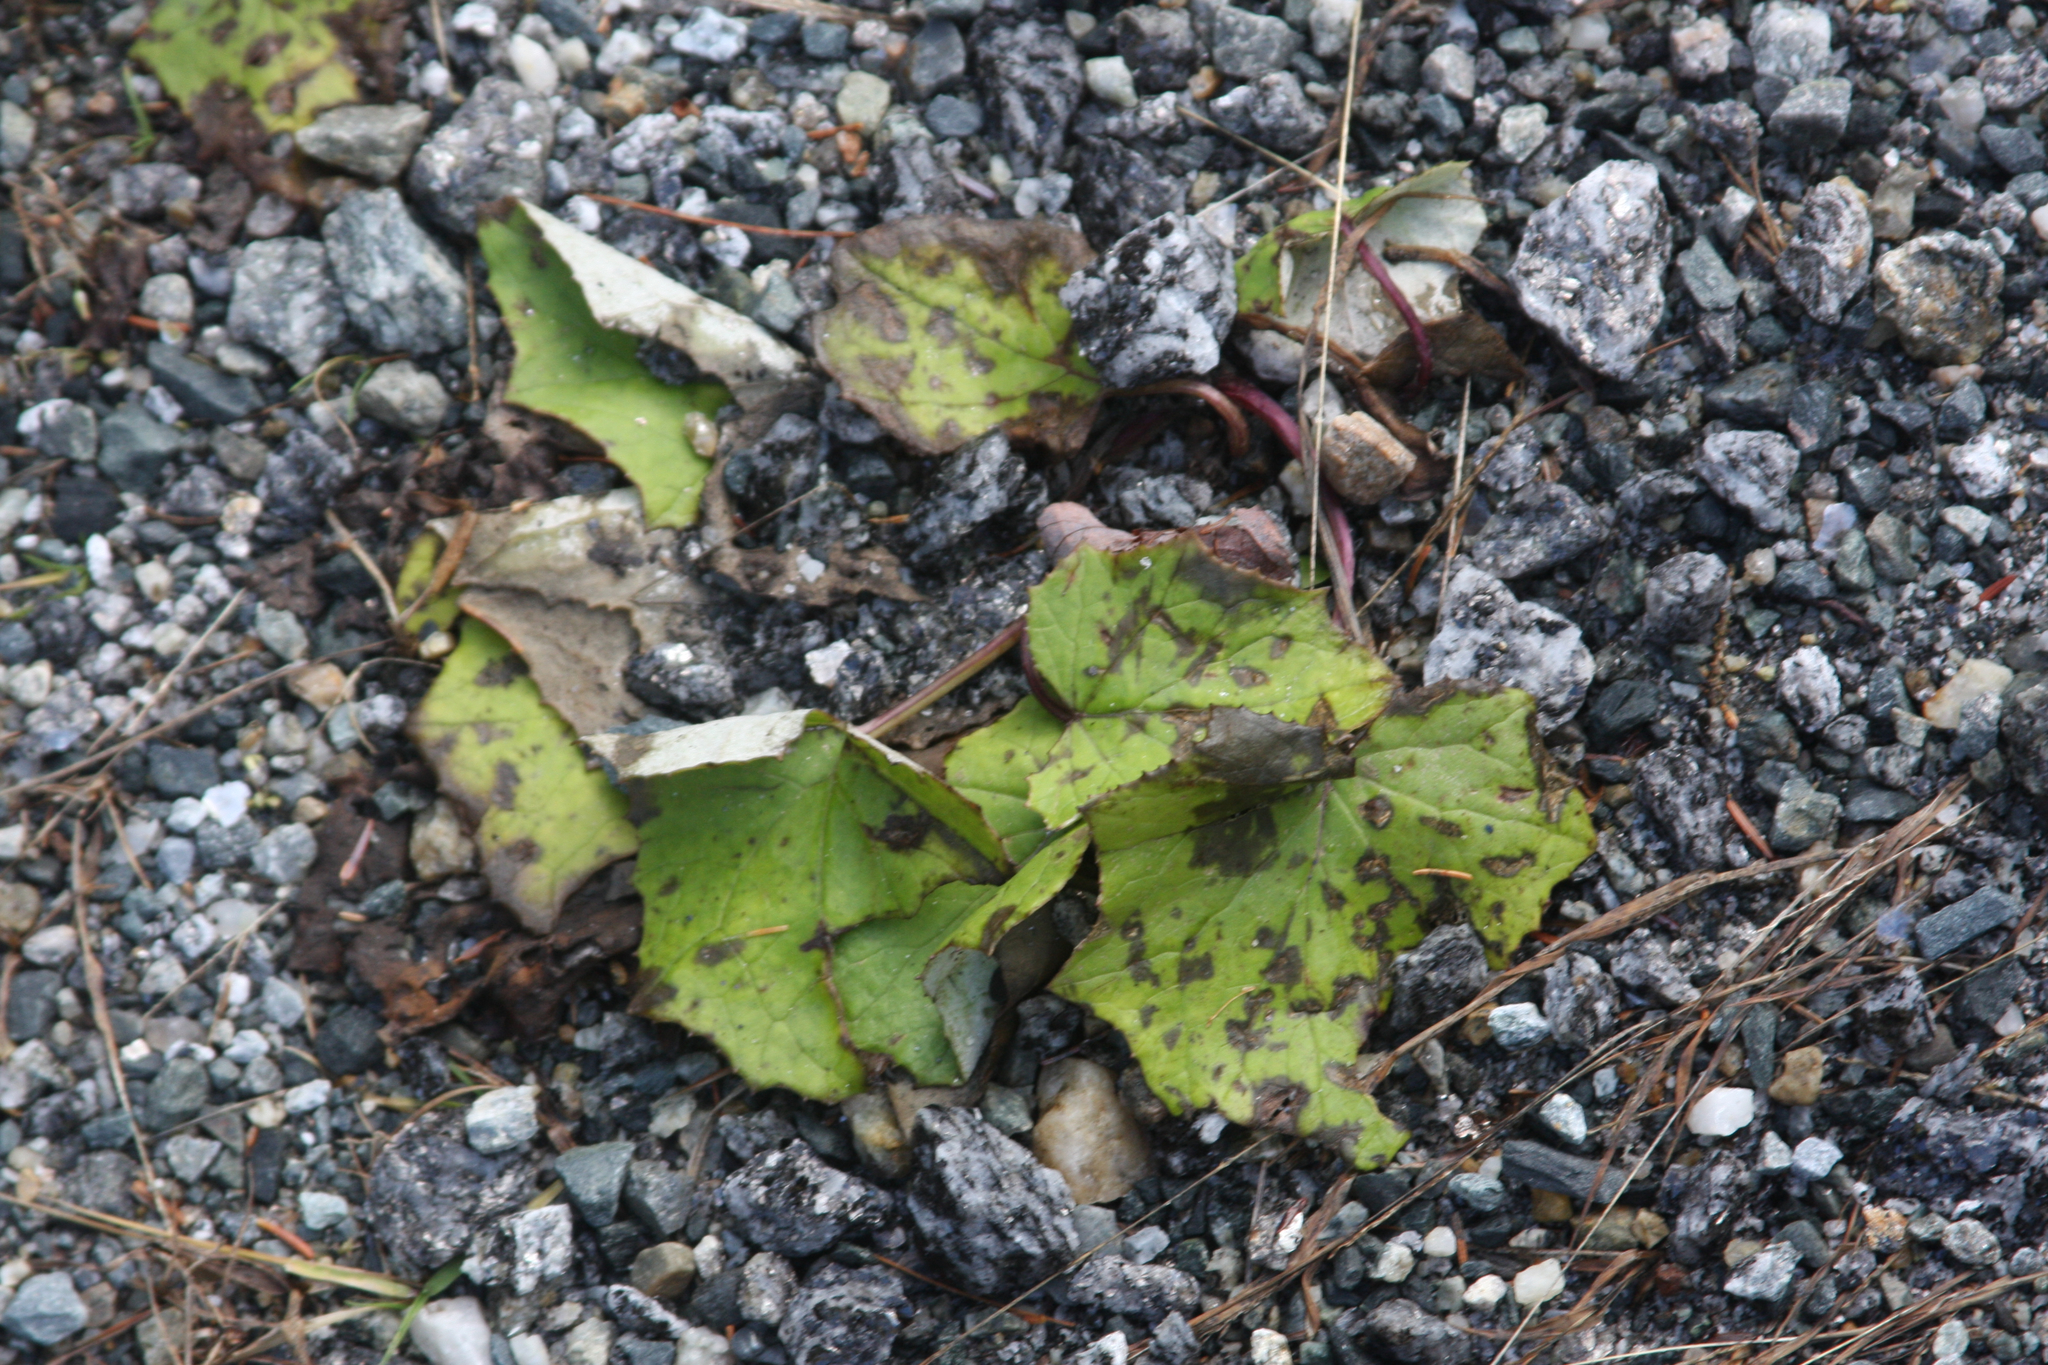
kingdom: Plantae
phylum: Tracheophyta
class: Magnoliopsida
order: Asterales
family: Asteraceae
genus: Tussilago
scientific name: Tussilago farfara
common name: Coltsfoot
